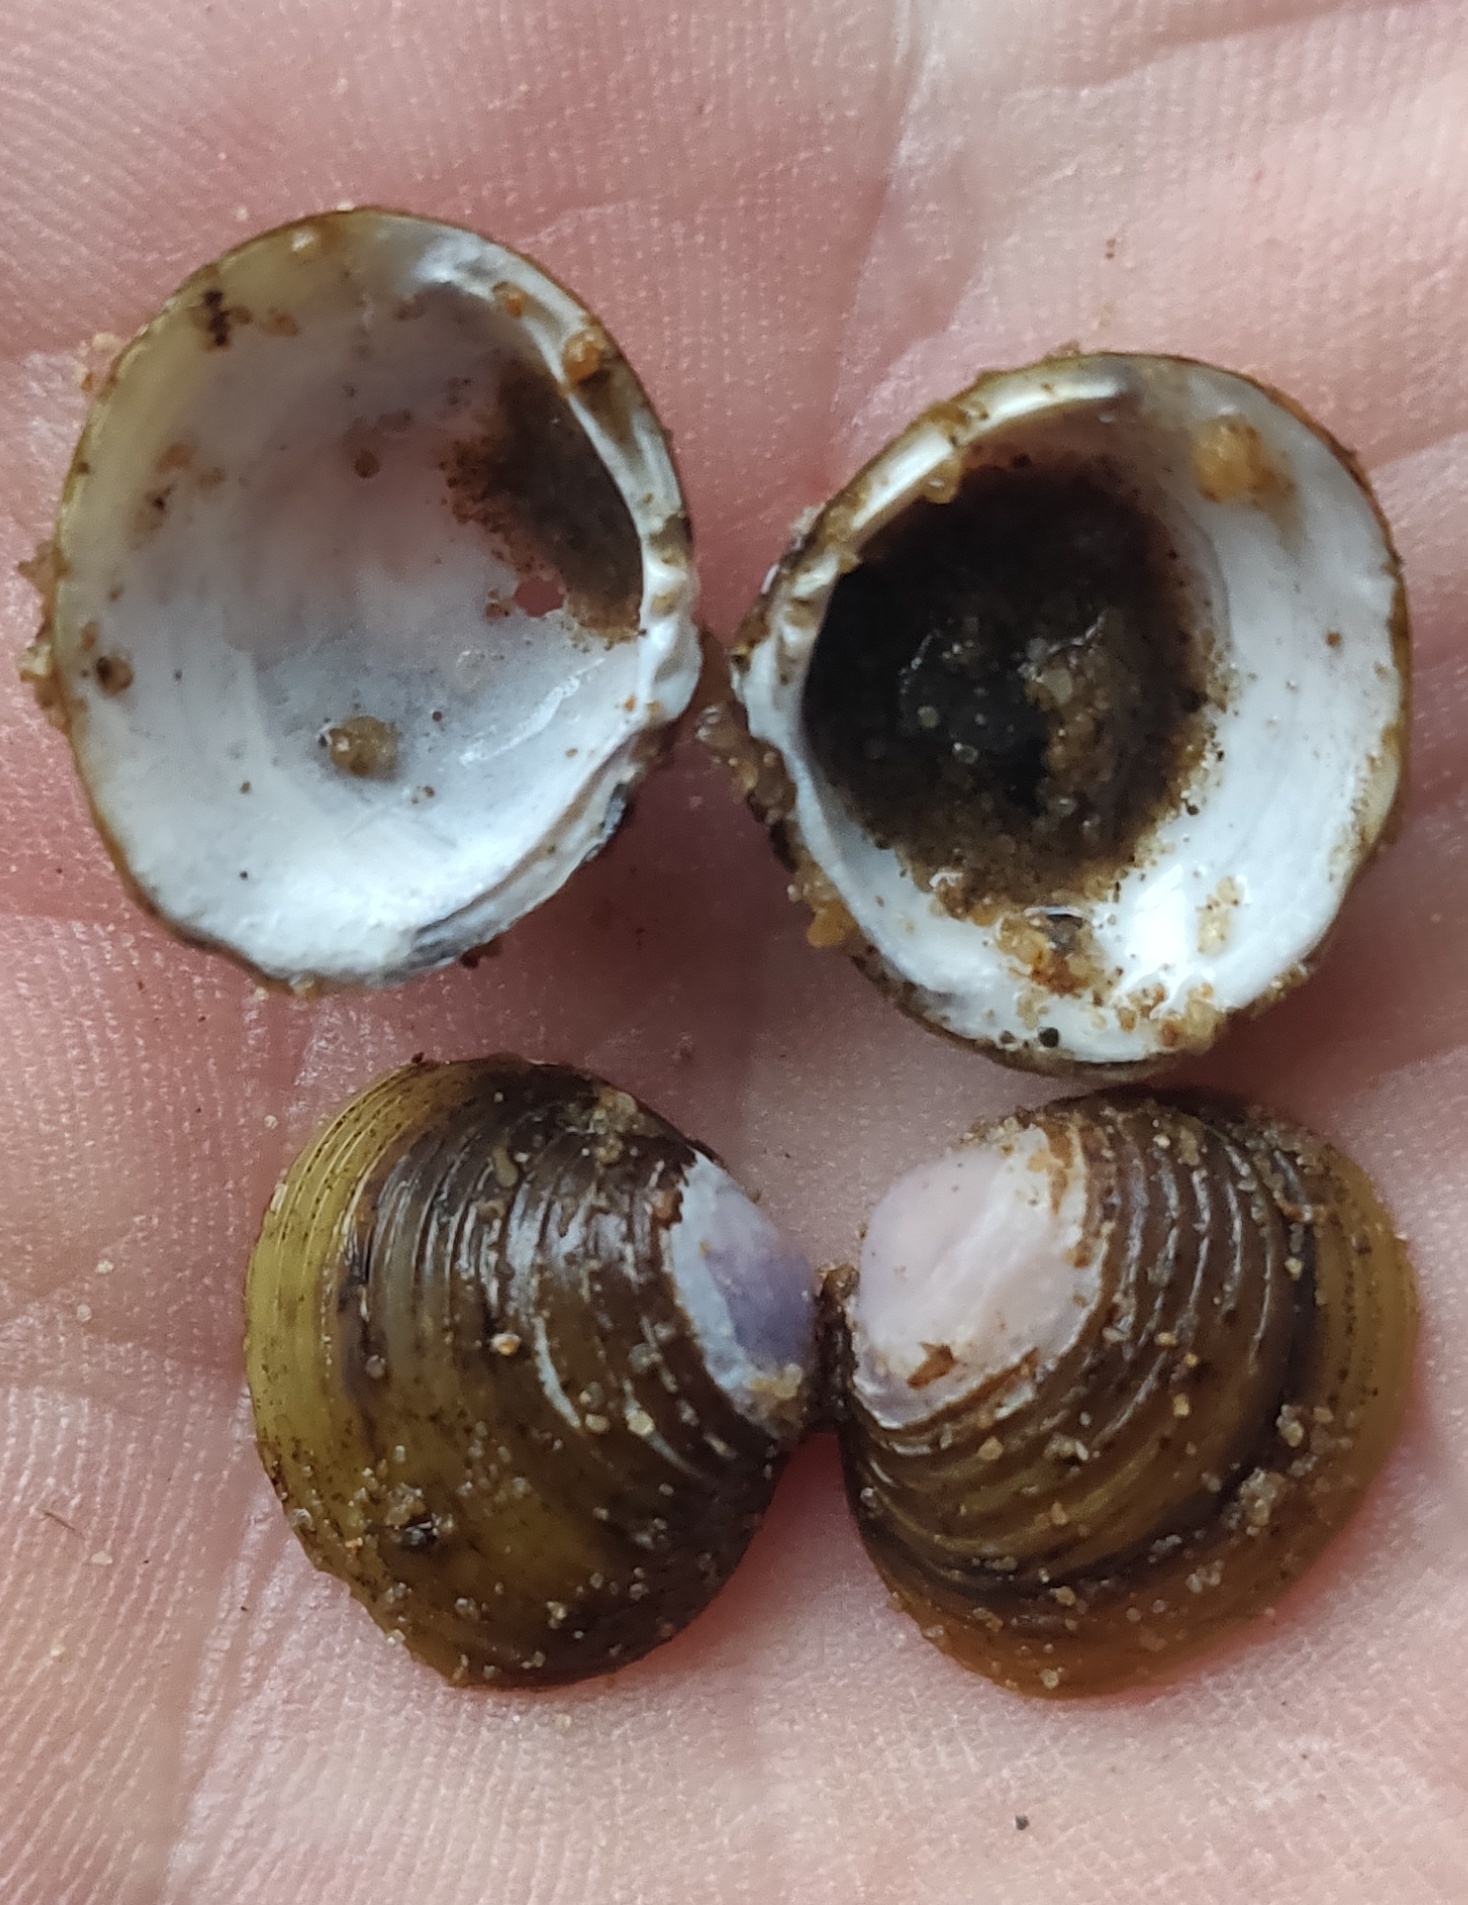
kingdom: Animalia
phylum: Mollusca
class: Bivalvia
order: Venerida
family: Cyrenidae
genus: Corbicula
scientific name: Corbicula fluminea
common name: Asian clam
